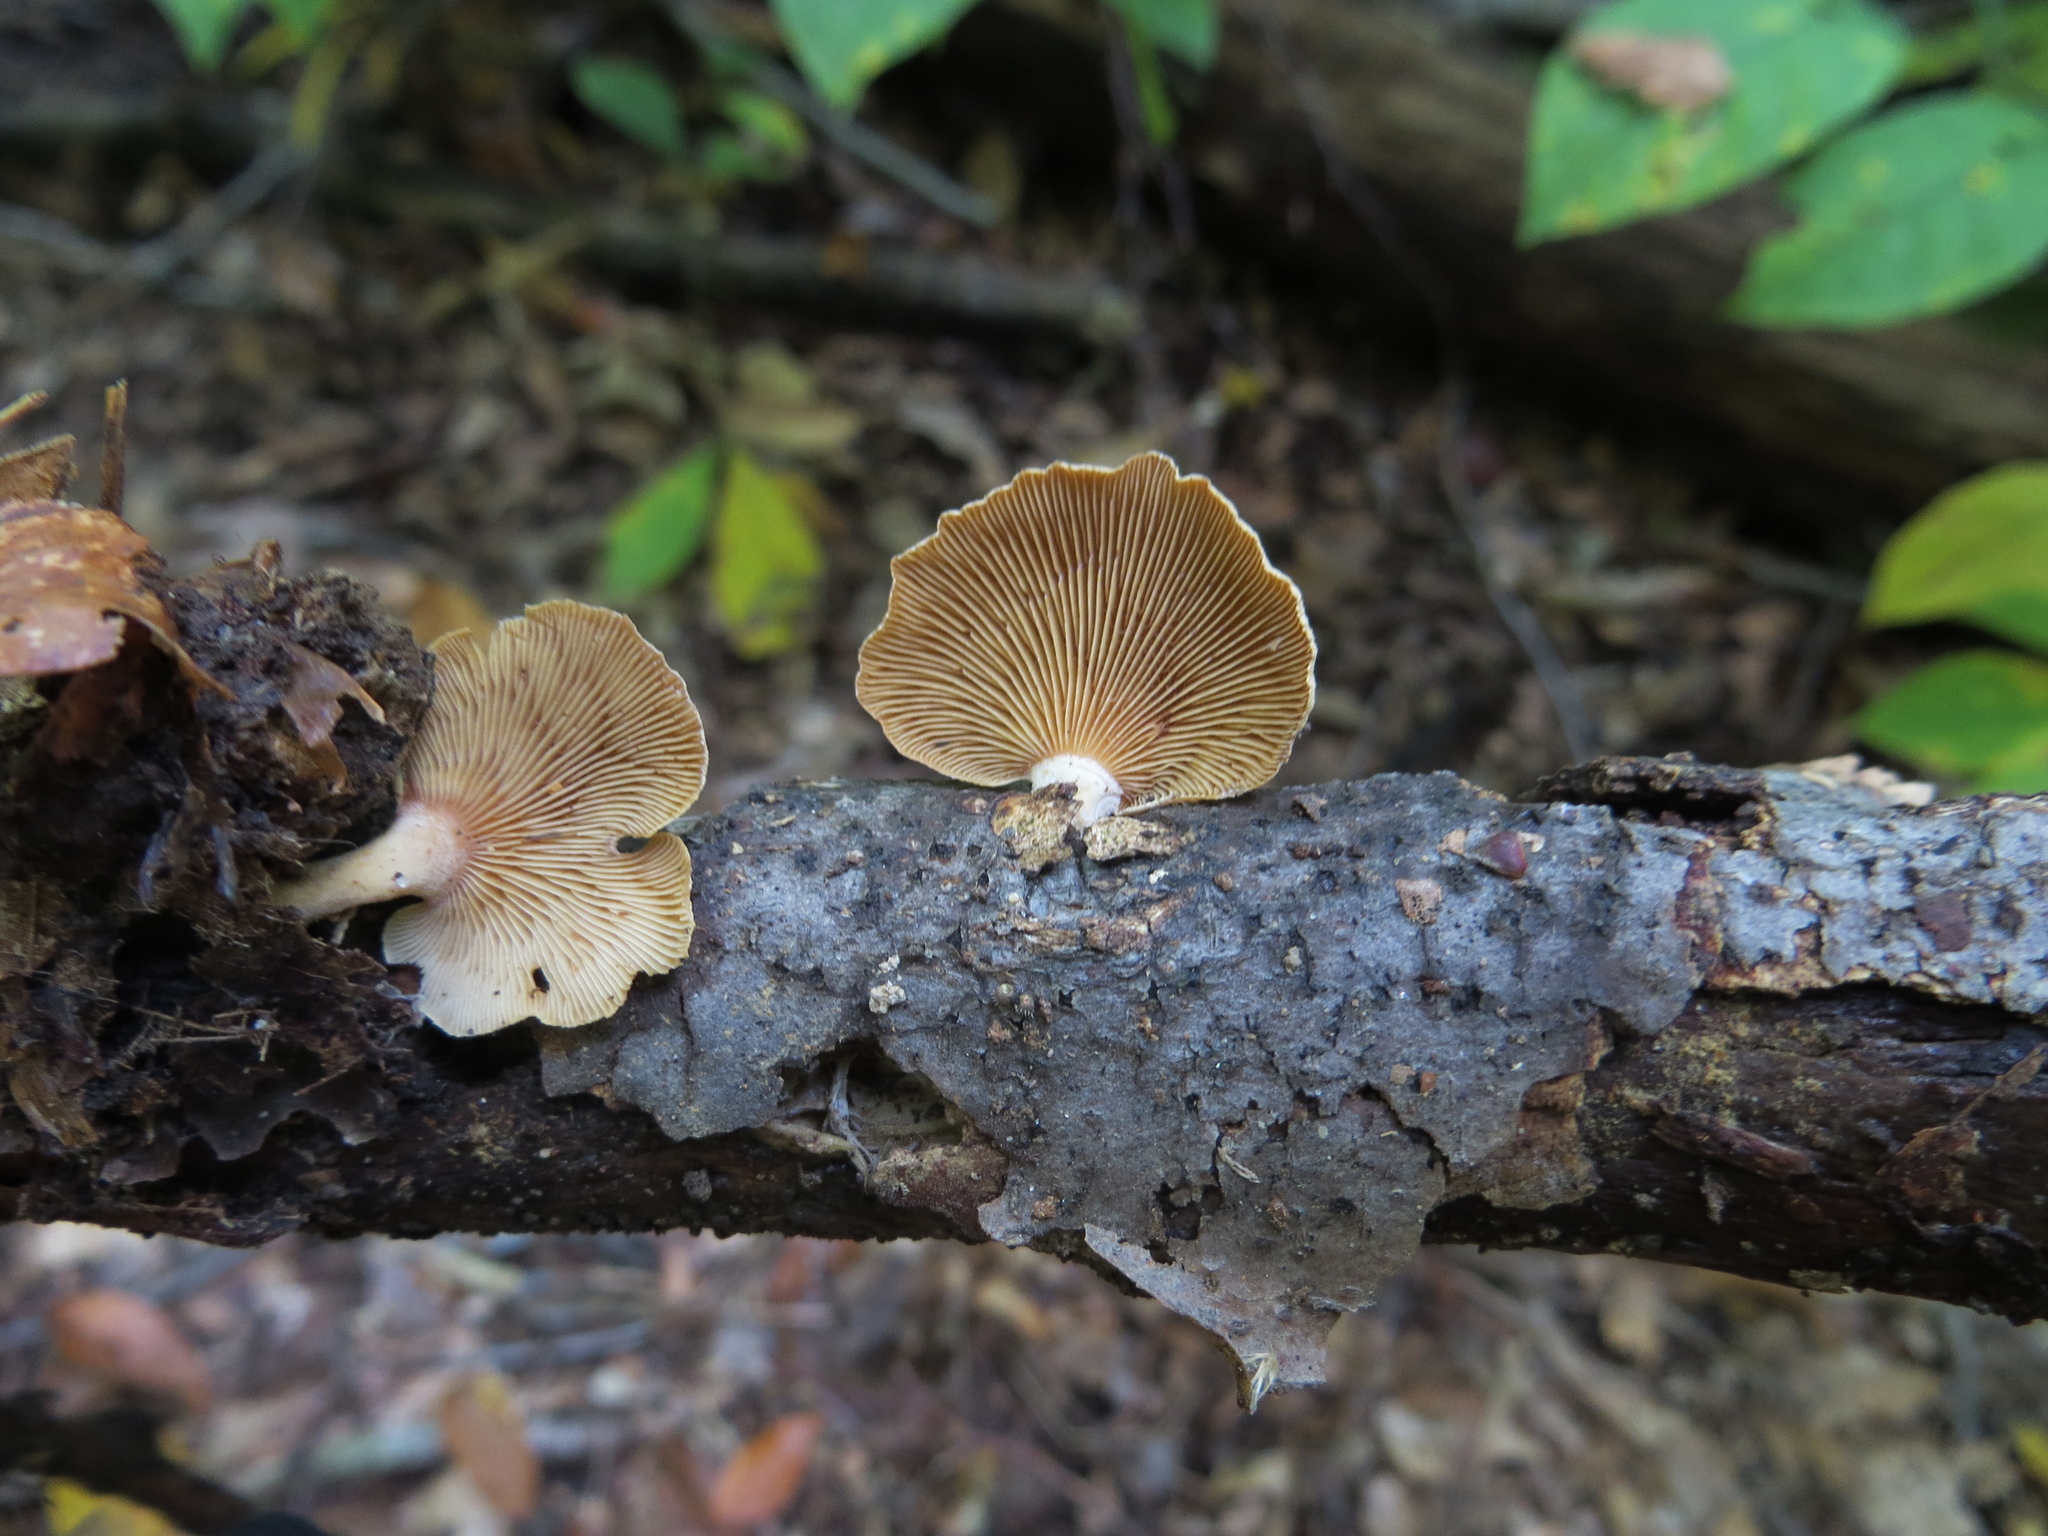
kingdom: Fungi
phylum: Basidiomycota
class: Agaricomycetes
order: Agaricales
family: Mycenaceae
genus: Panellus
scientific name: Panellus stipticus
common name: Bitter oysterling
